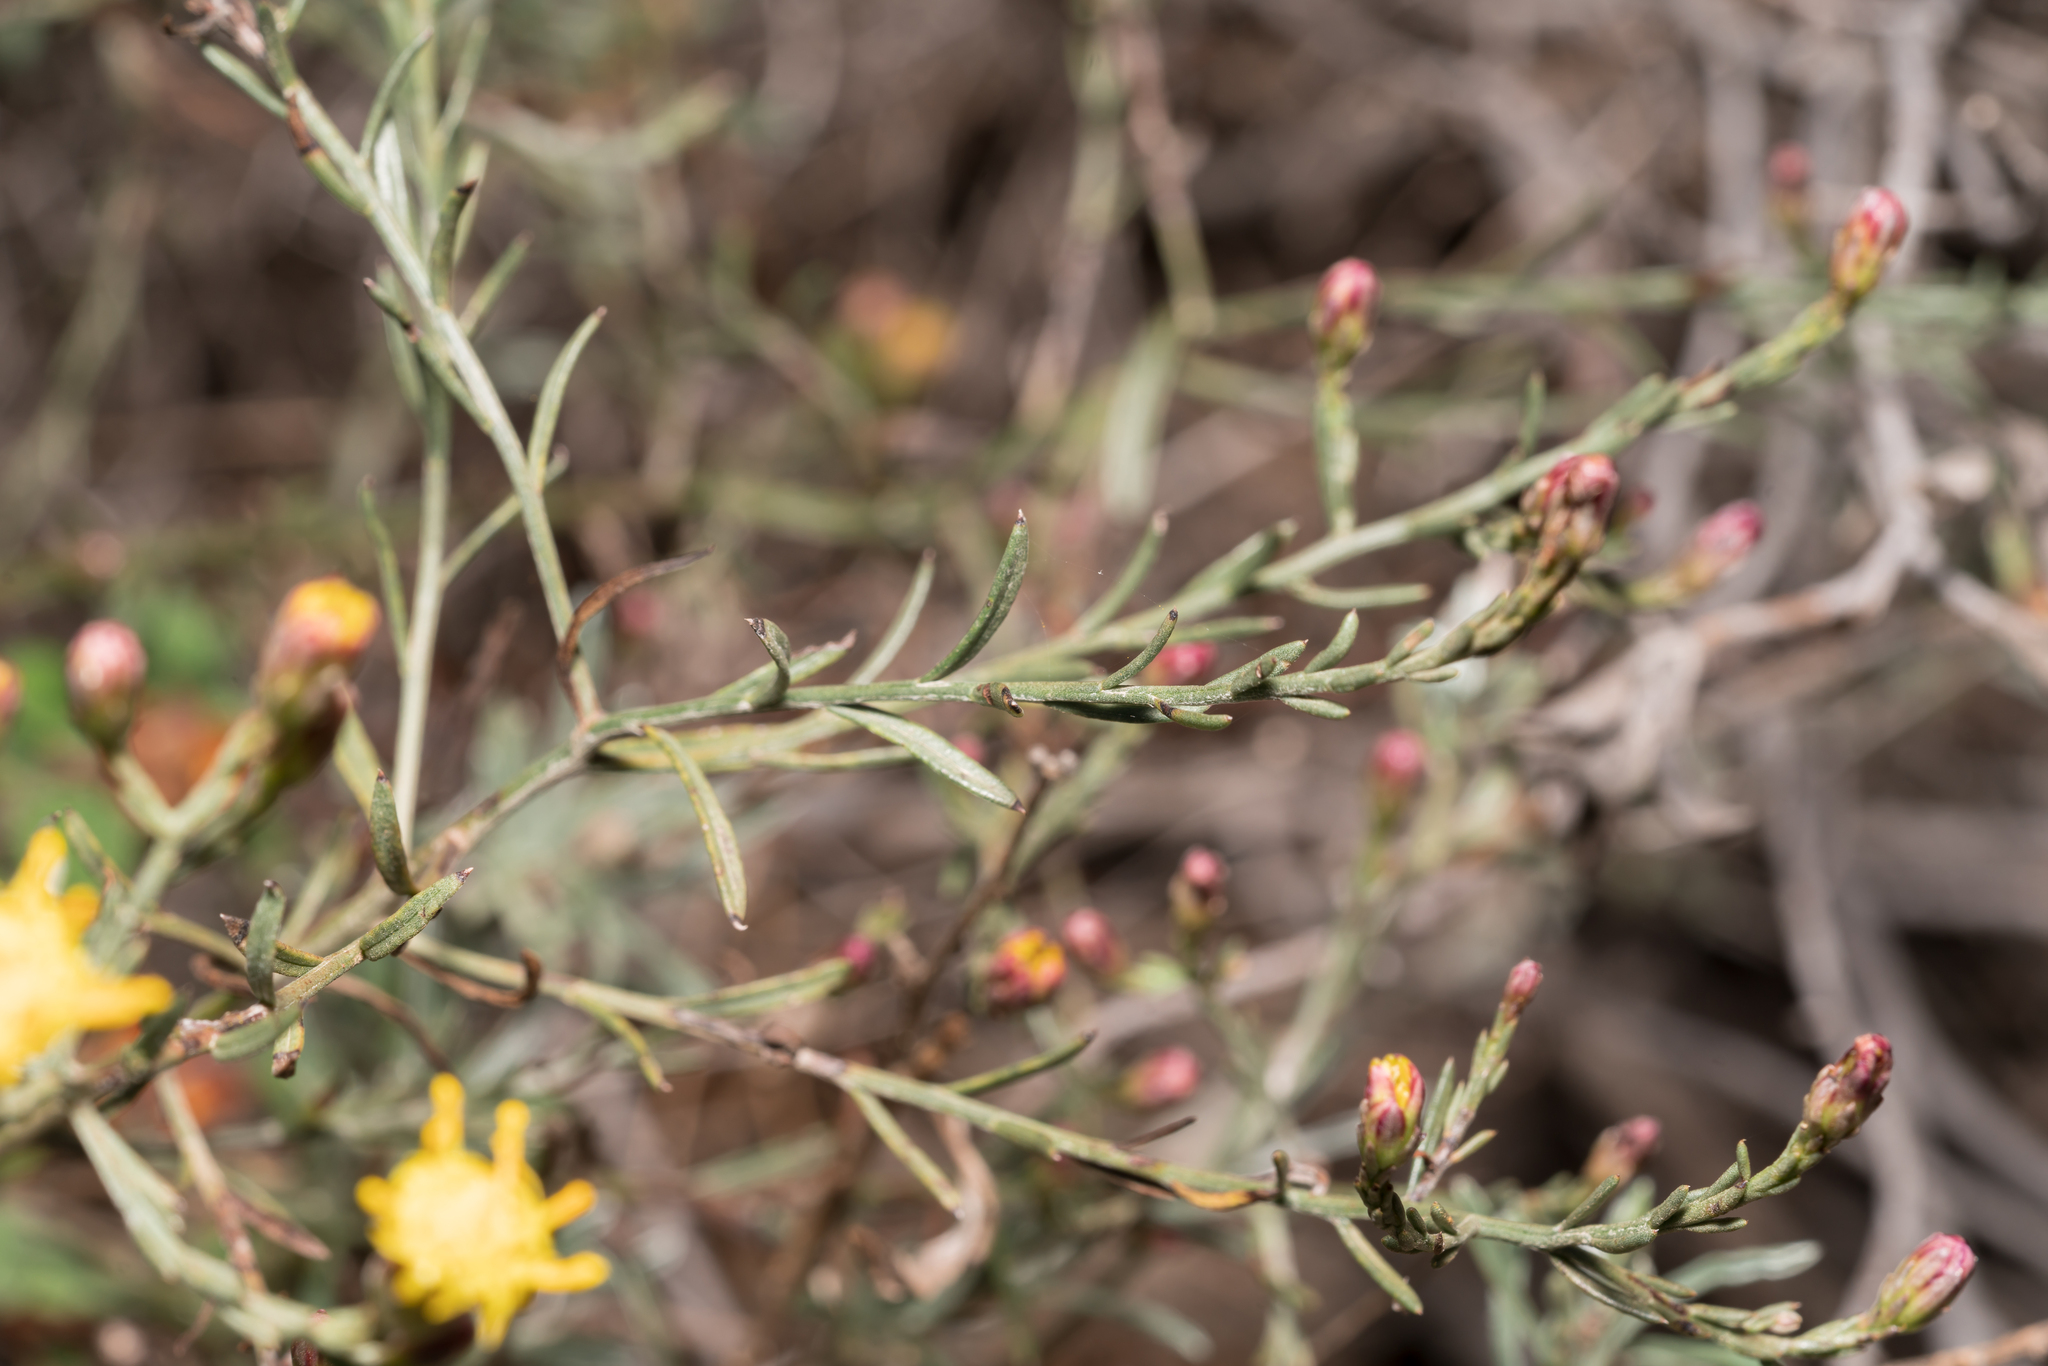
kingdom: Plantae
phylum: Tracheophyta
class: Magnoliopsida
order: Asterales
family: Asteraceae
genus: Galatella
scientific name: Galatella cretica
